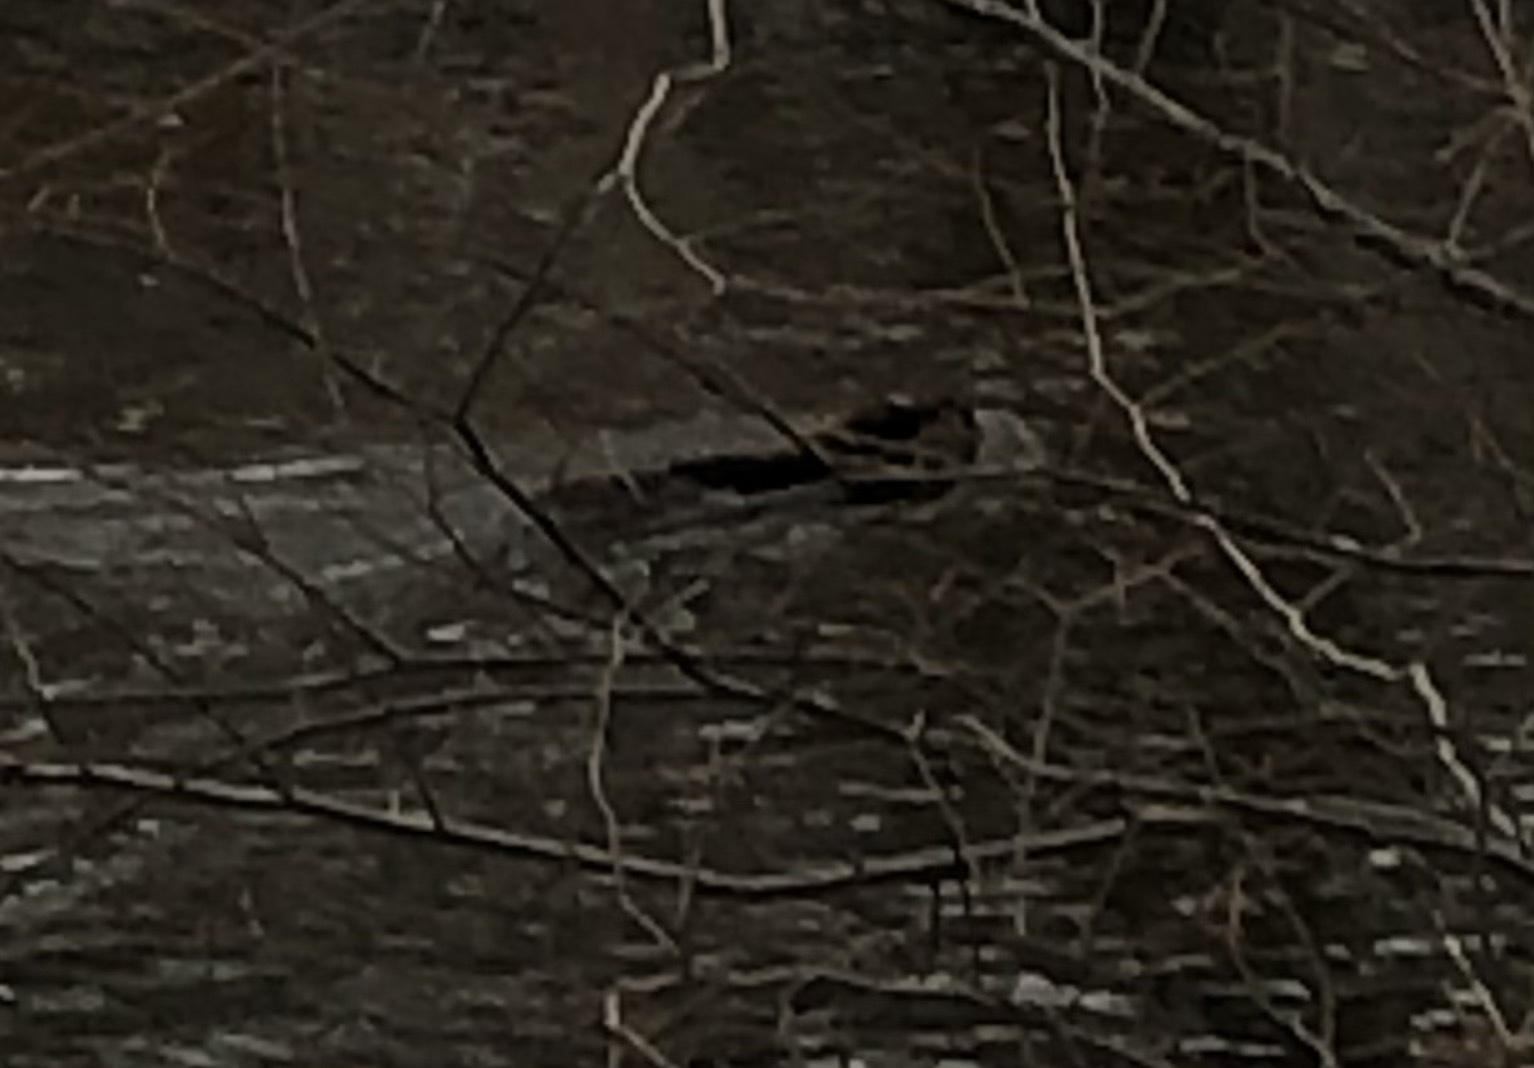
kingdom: Animalia
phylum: Chordata
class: Mammalia
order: Rodentia
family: Castoridae
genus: Castor
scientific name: Castor canadensis
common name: American beaver
